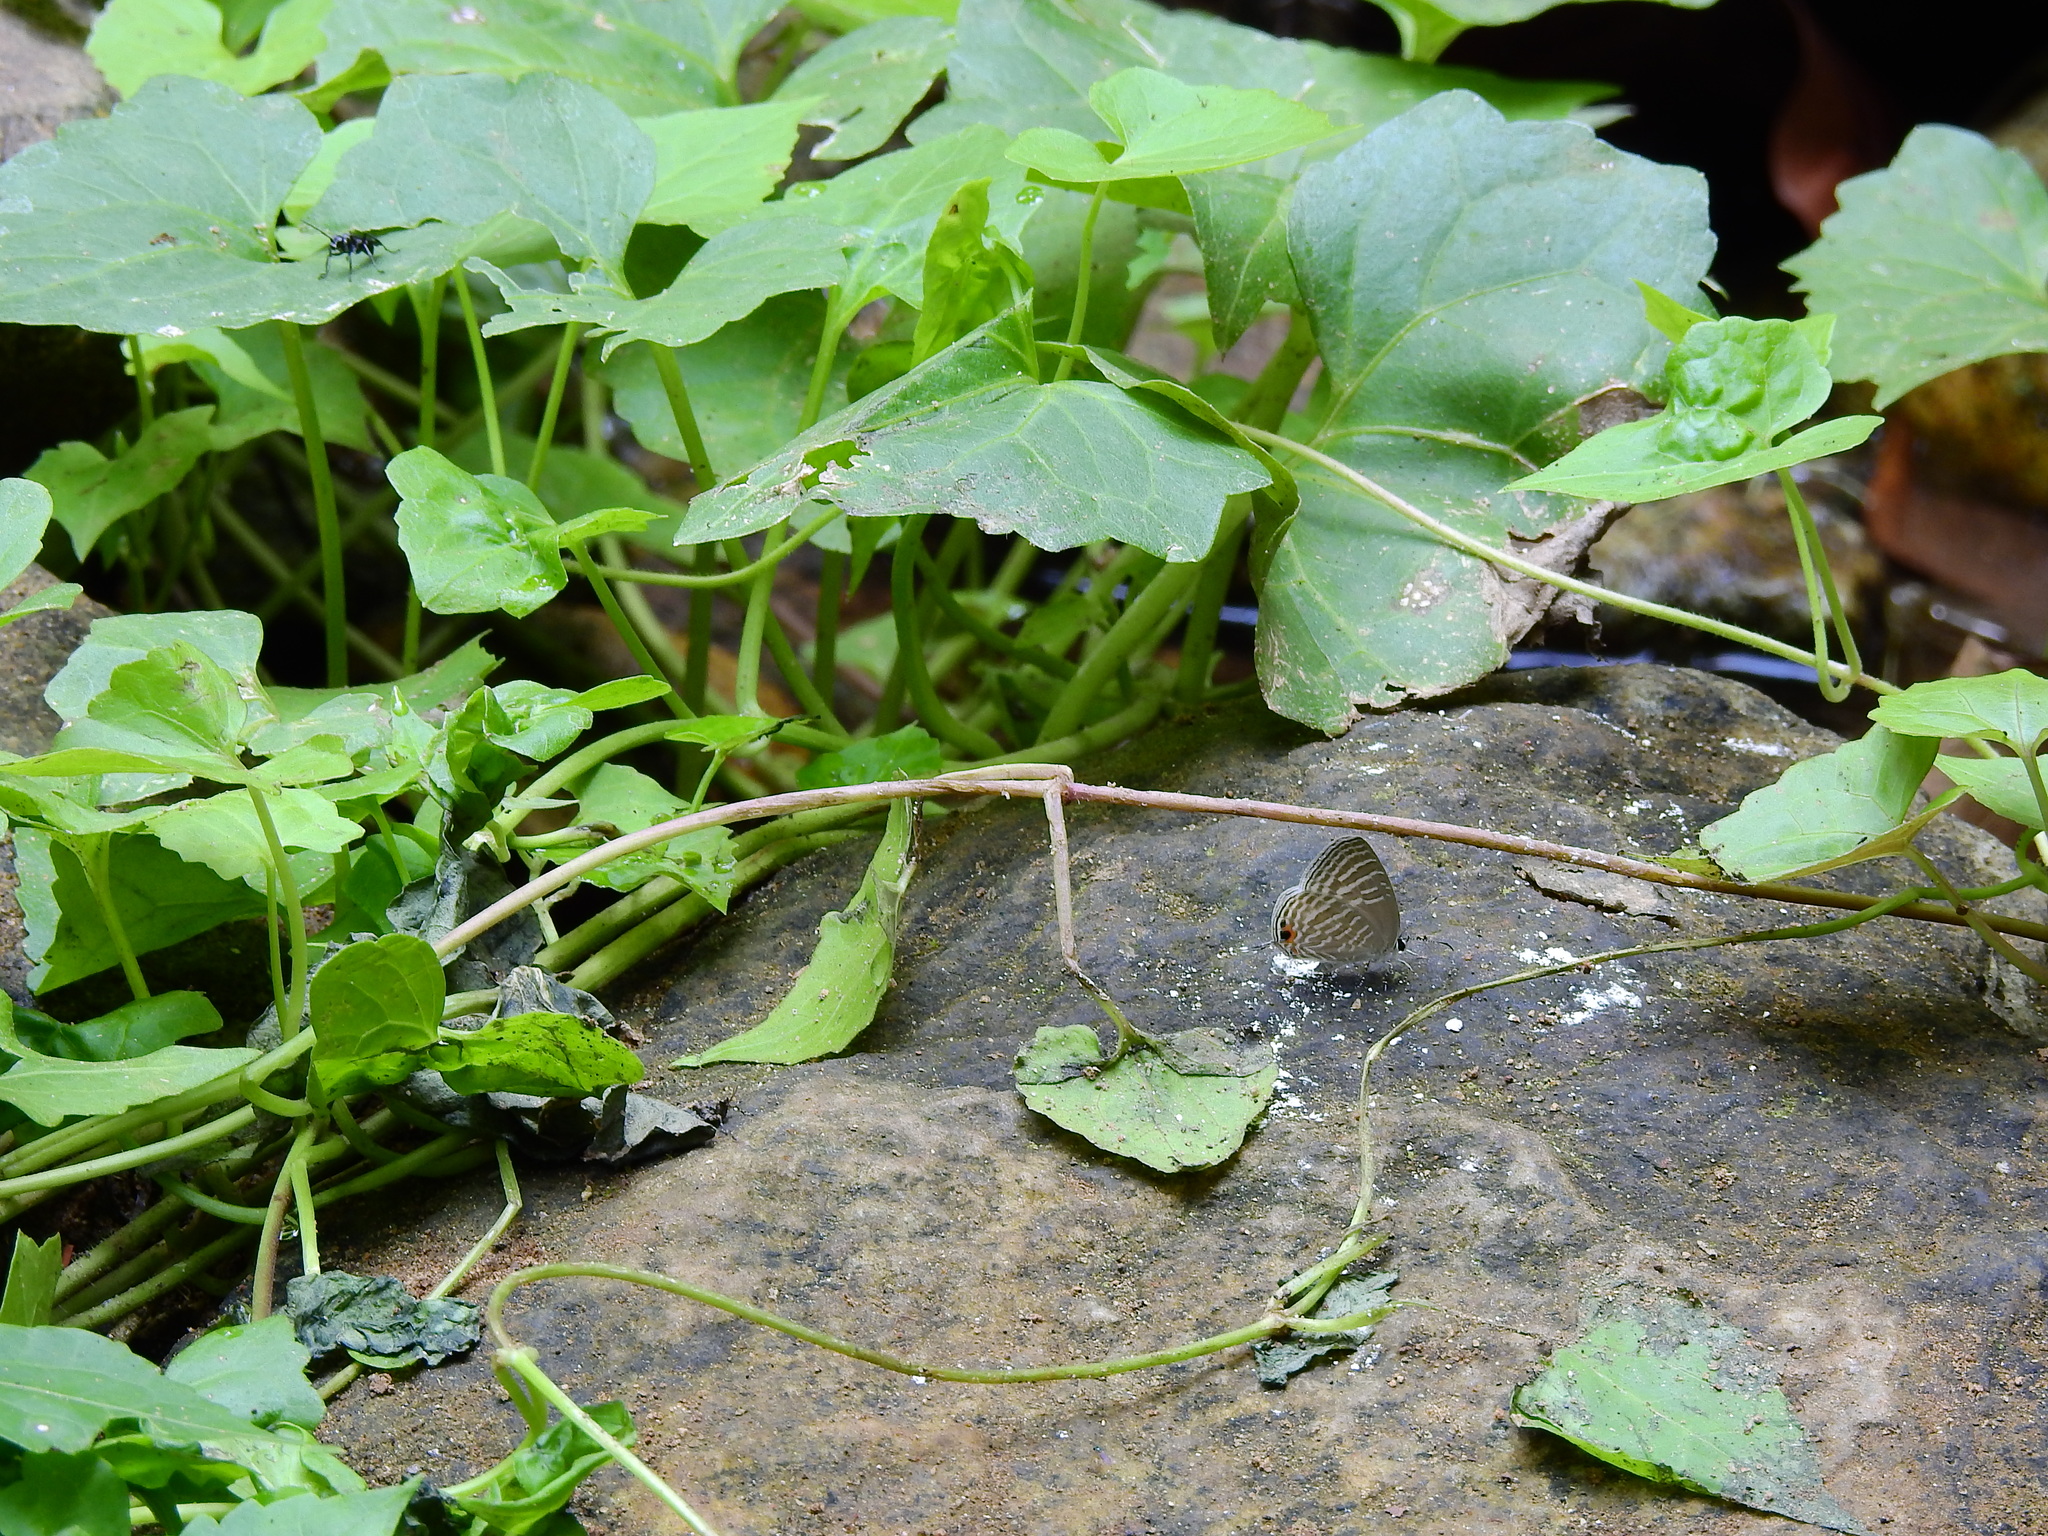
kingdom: Animalia
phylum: Arthropoda
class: Insecta
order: Lepidoptera
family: Lycaenidae
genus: Jamides
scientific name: Jamides celeno
